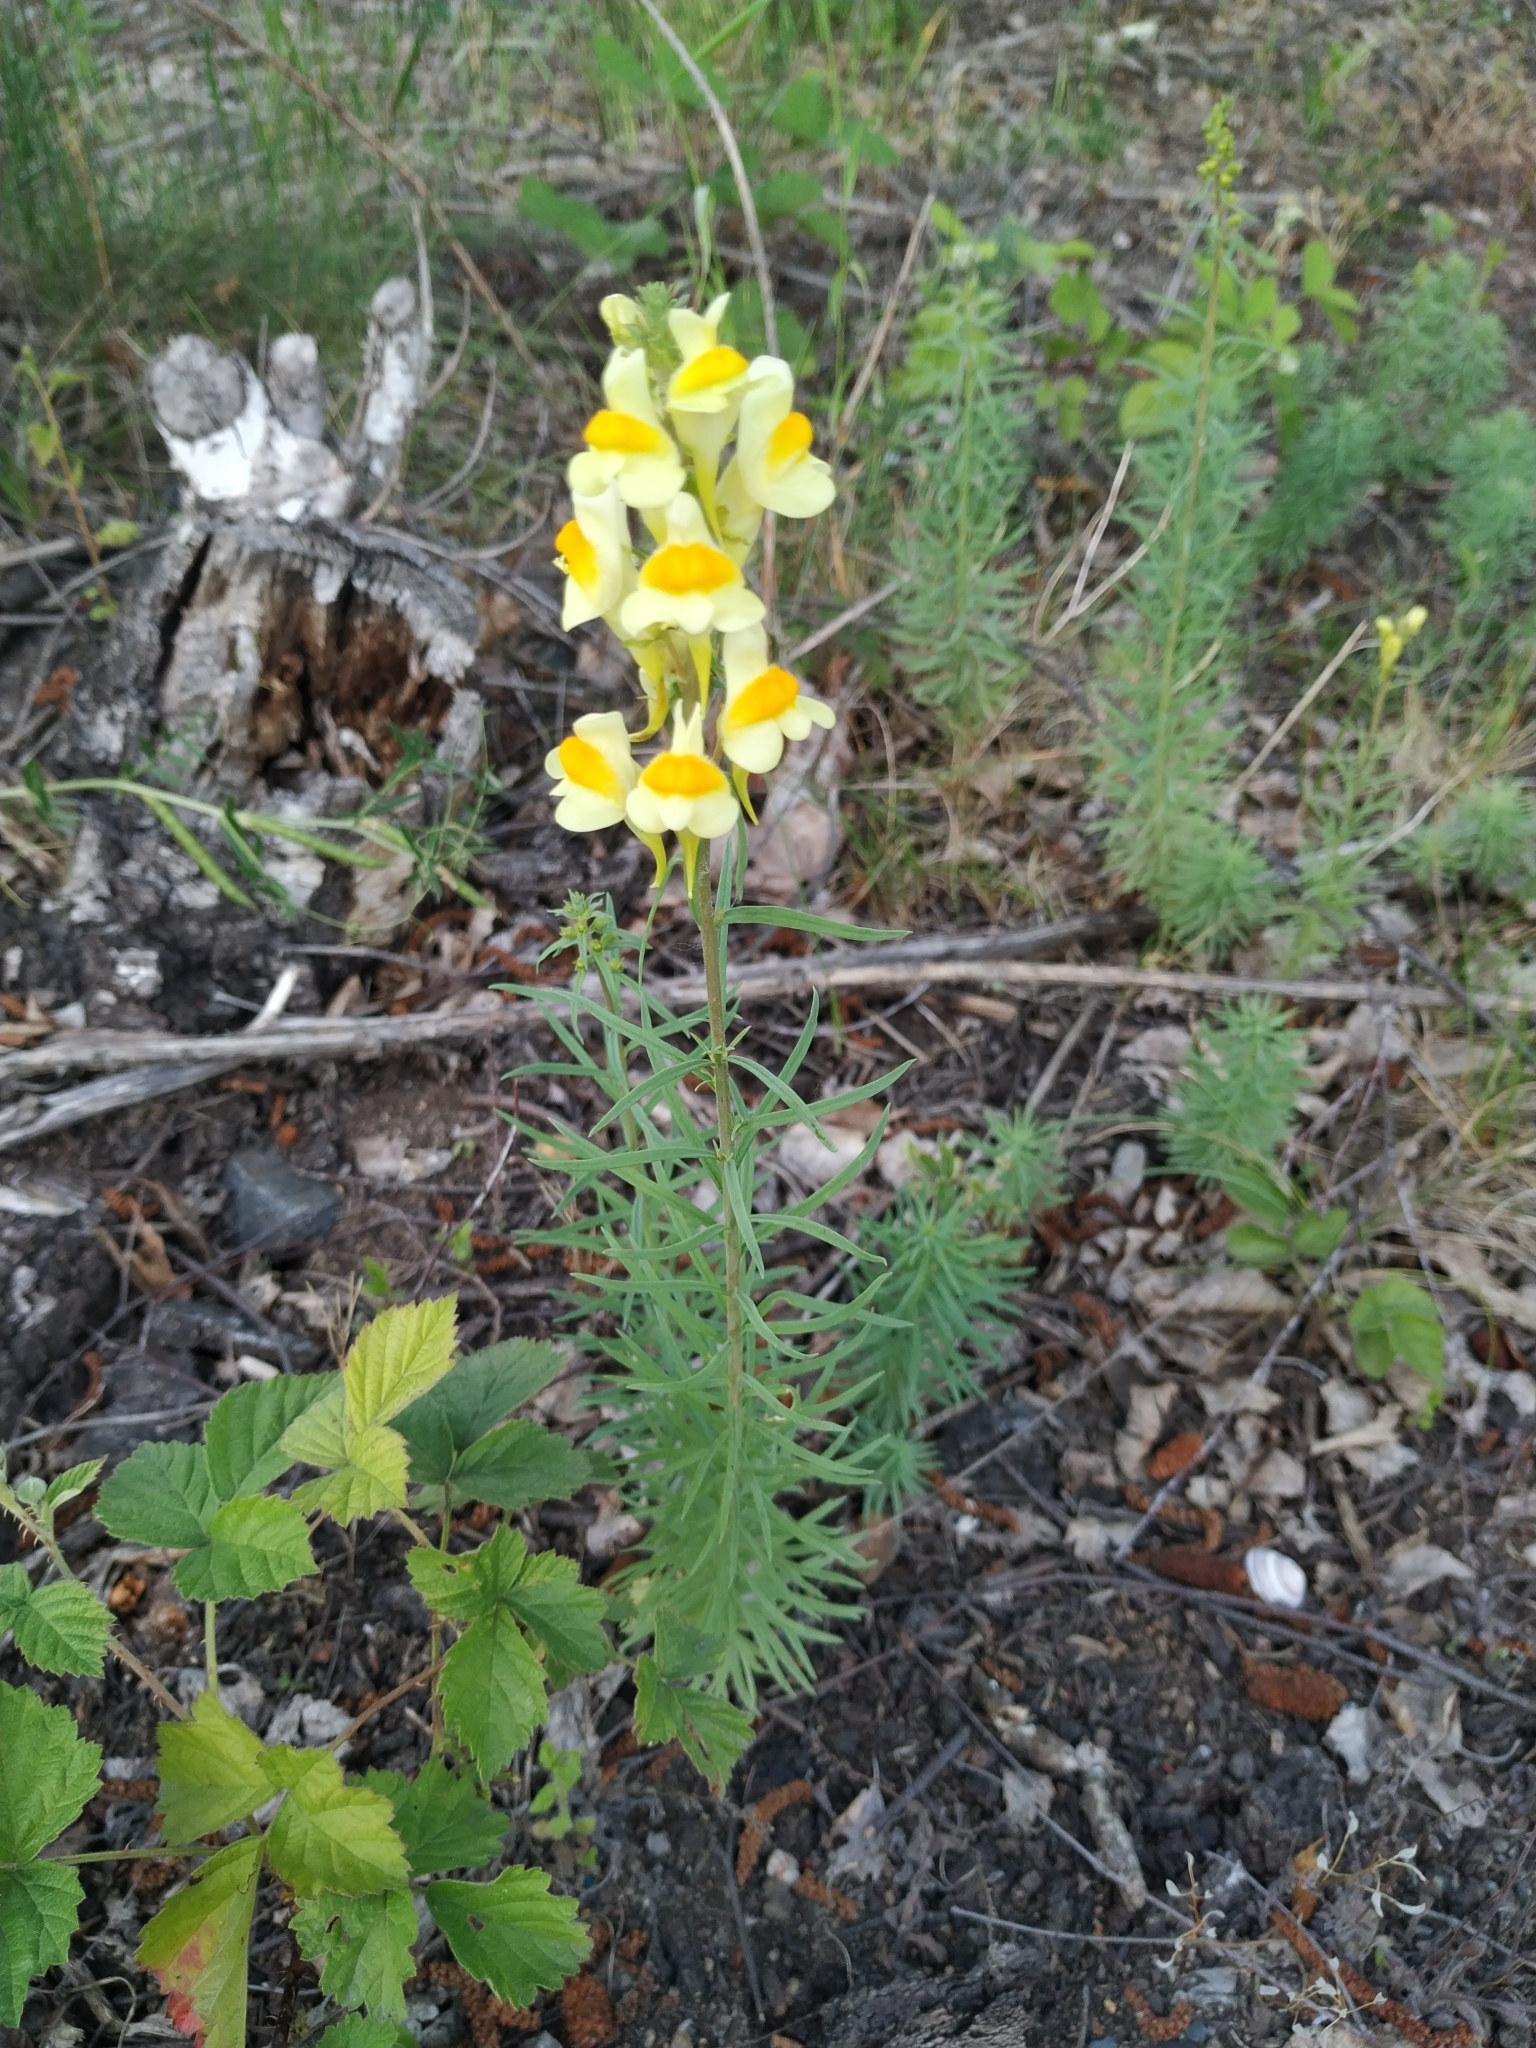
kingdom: Plantae
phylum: Tracheophyta
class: Magnoliopsida
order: Lamiales
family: Plantaginaceae
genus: Linaria
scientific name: Linaria vulgaris
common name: Butter and eggs
